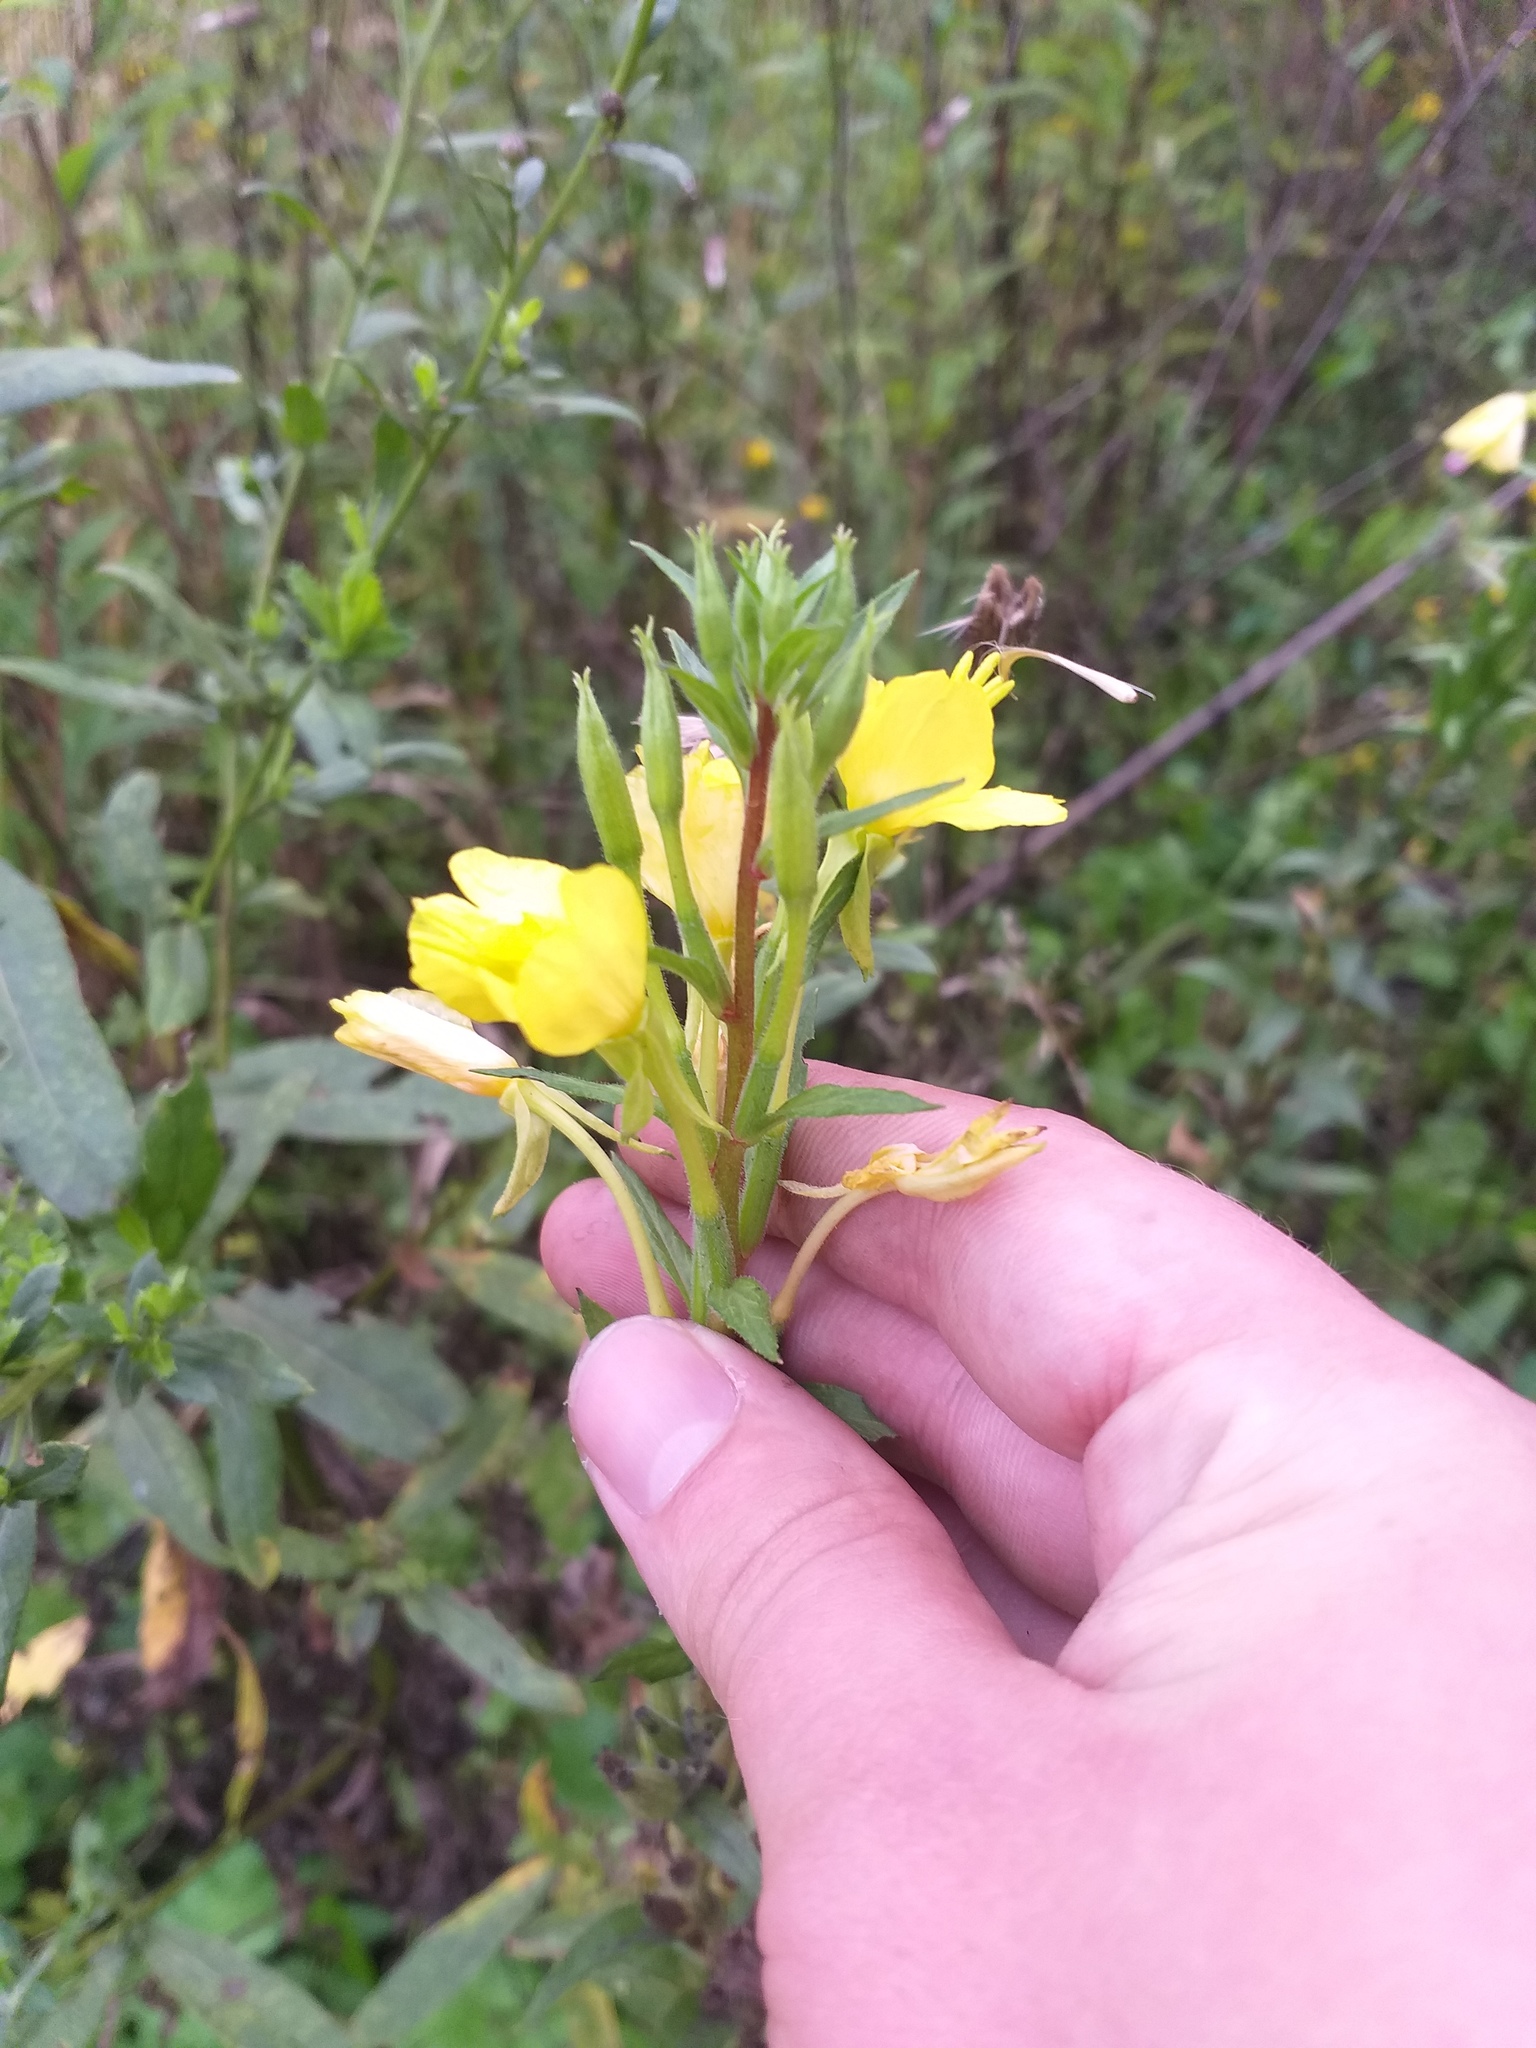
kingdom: Plantae
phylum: Tracheophyta
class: Magnoliopsida
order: Myrtales
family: Onagraceae
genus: Oenothera
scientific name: Oenothera rubricaulis
